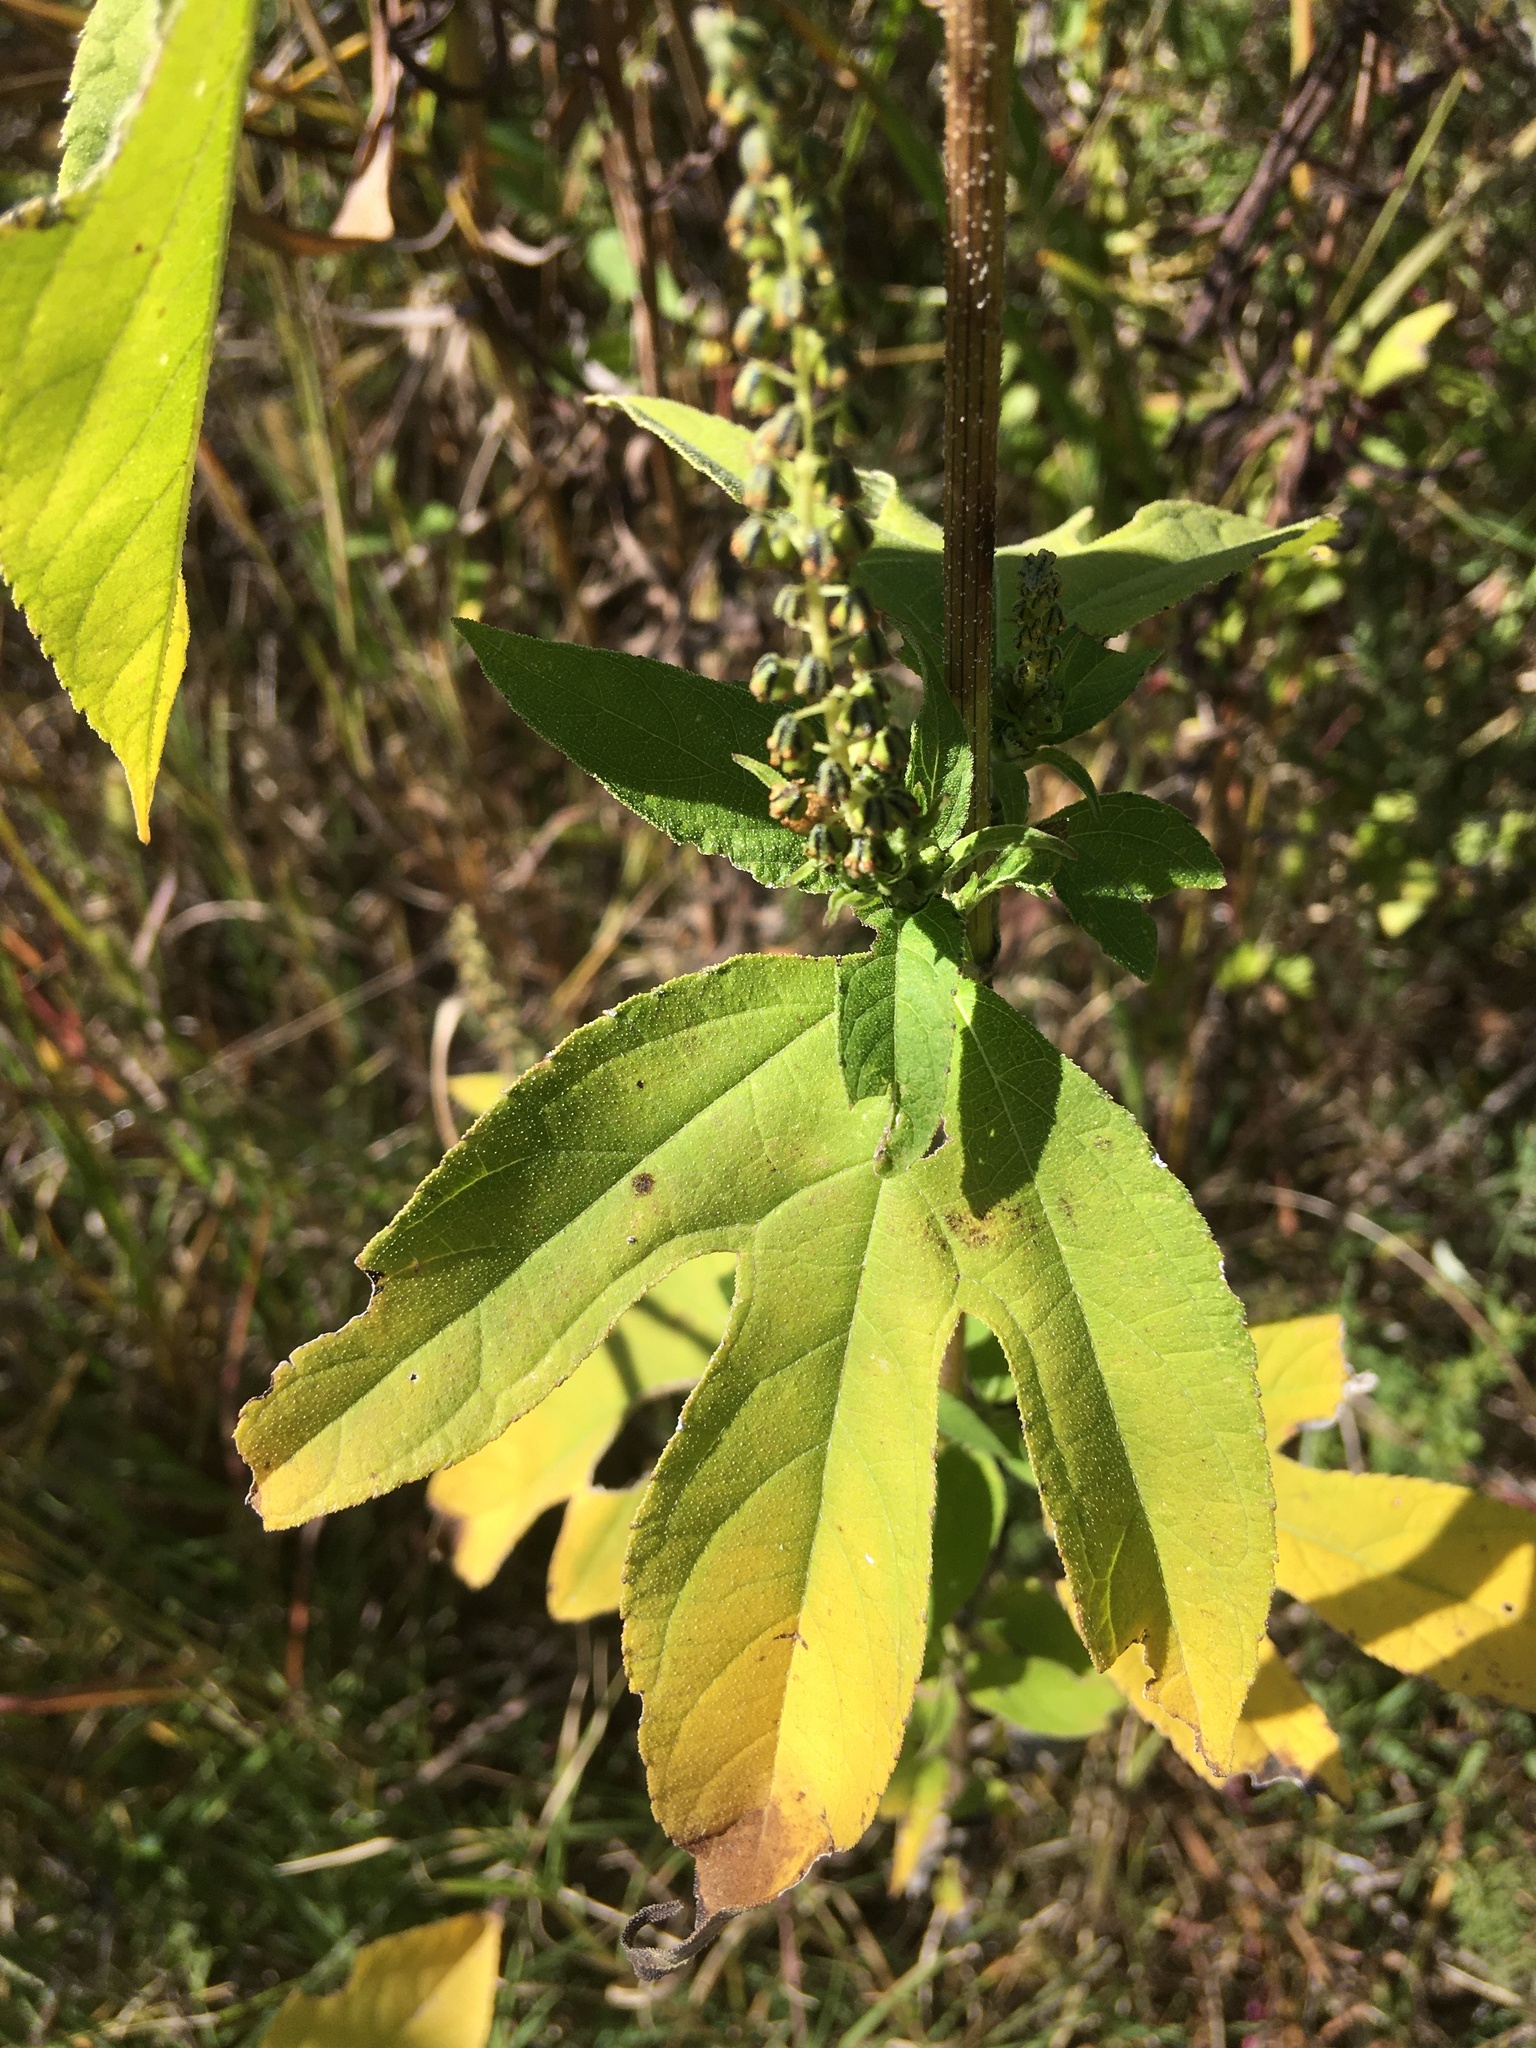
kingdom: Plantae
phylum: Tracheophyta
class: Magnoliopsida
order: Asterales
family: Asteraceae
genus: Ambrosia
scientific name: Ambrosia trifida
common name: Giant ragweed
